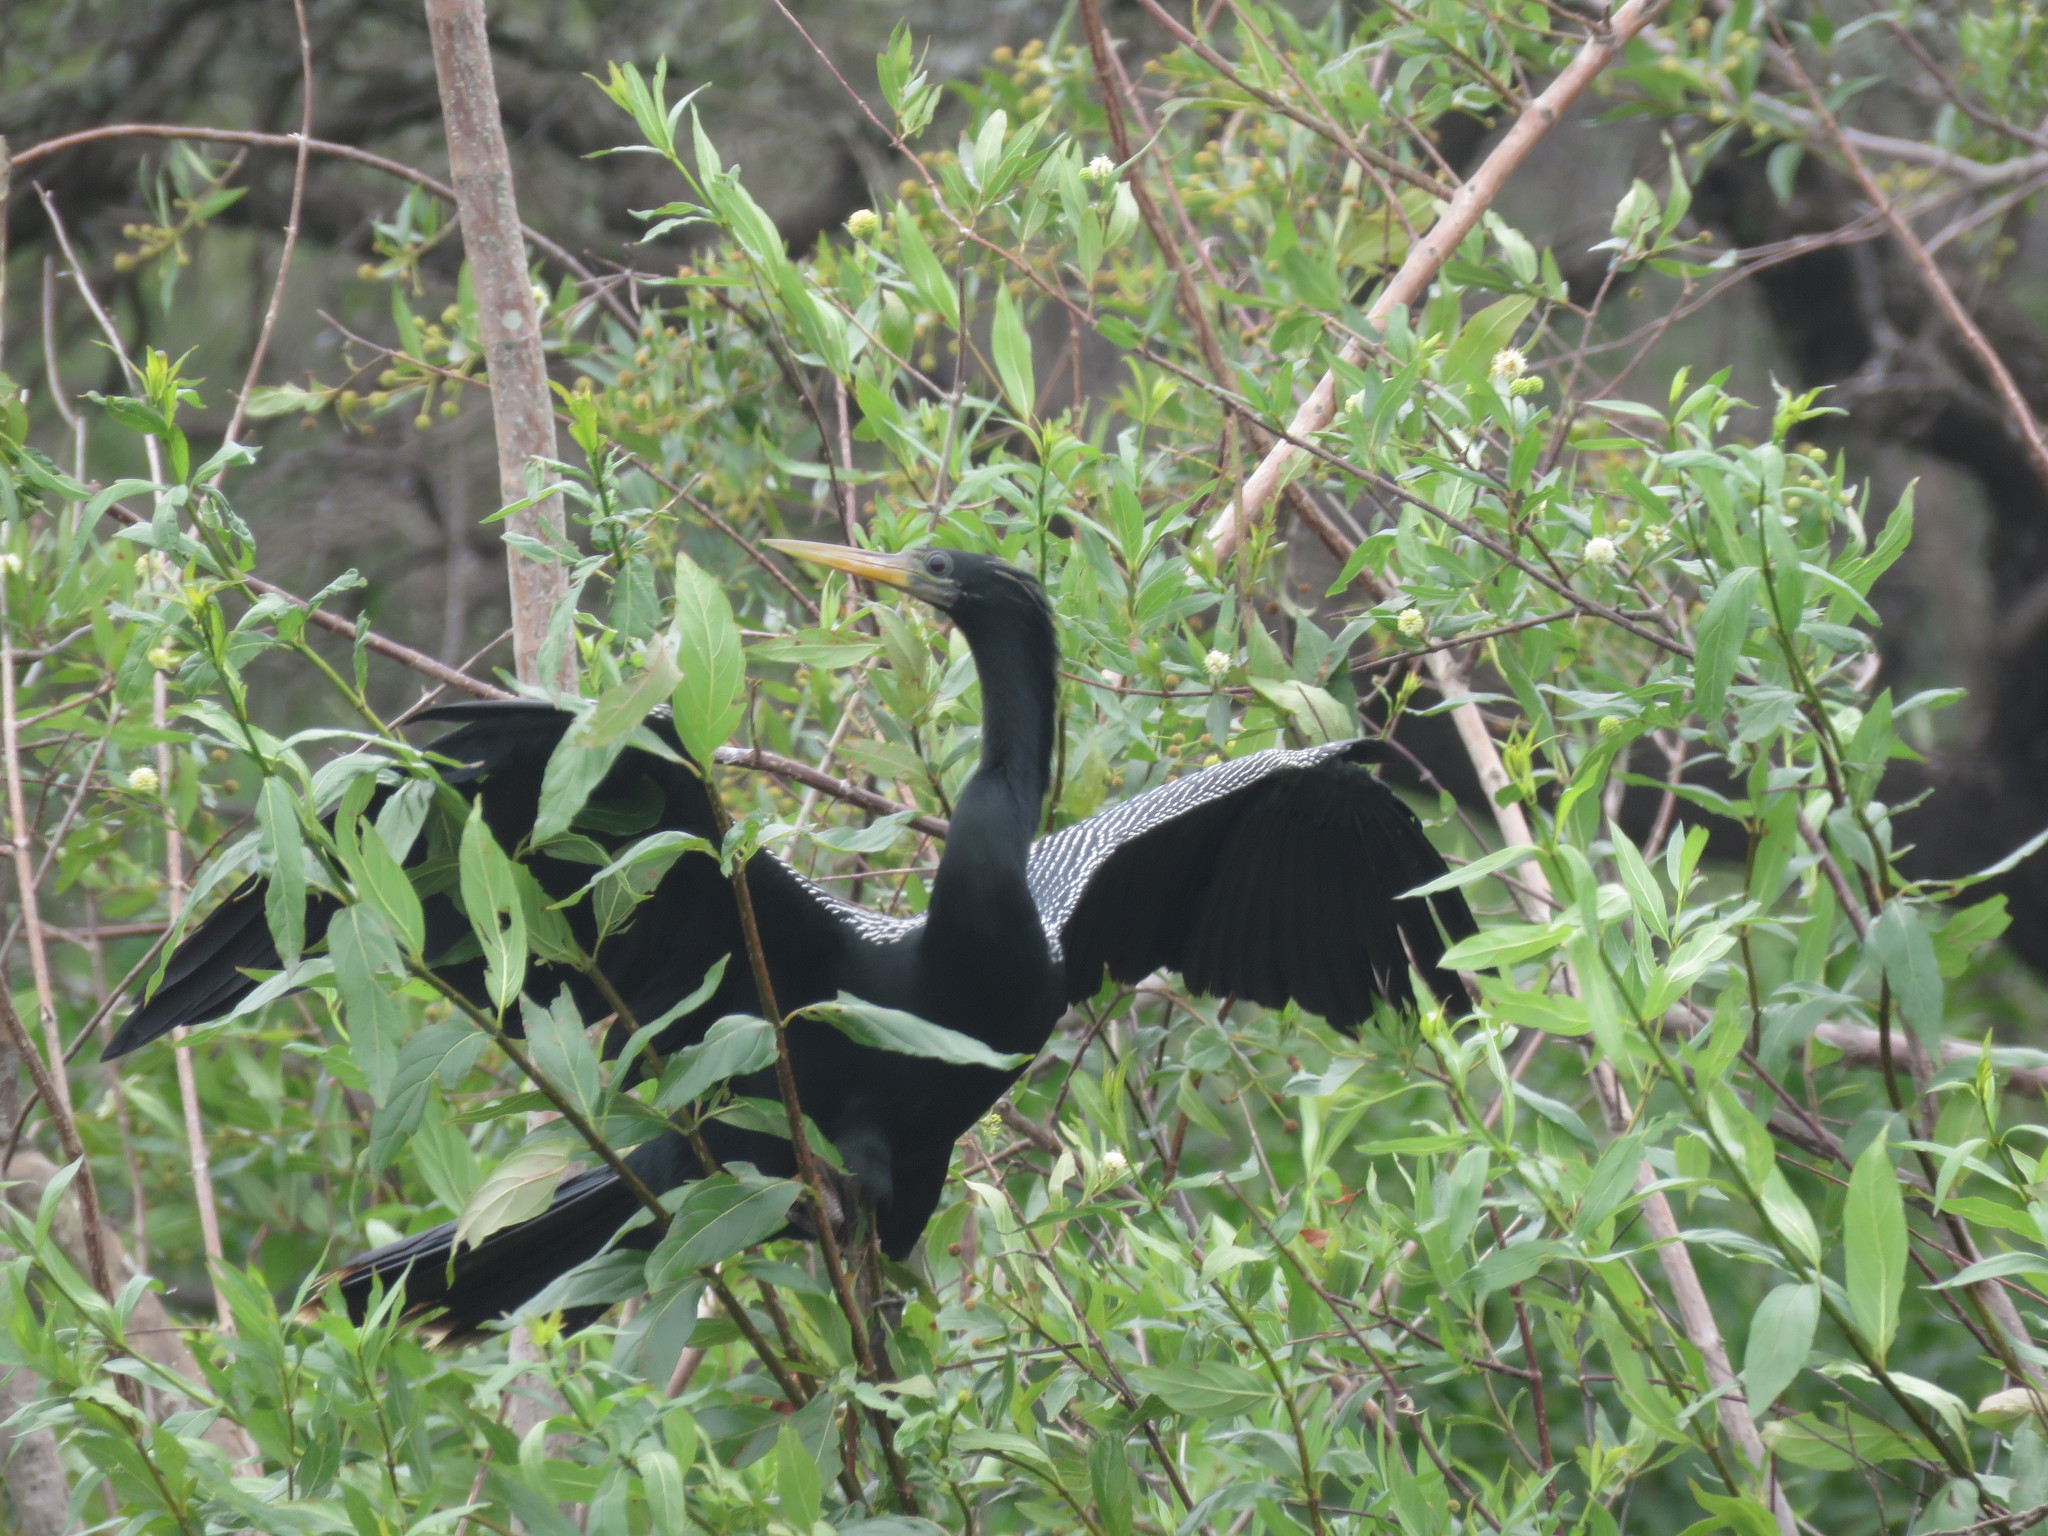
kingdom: Animalia
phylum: Chordata
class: Aves
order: Suliformes
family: Anhingidae
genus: Anhinga
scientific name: Anhinga anhinga
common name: Anhinga
